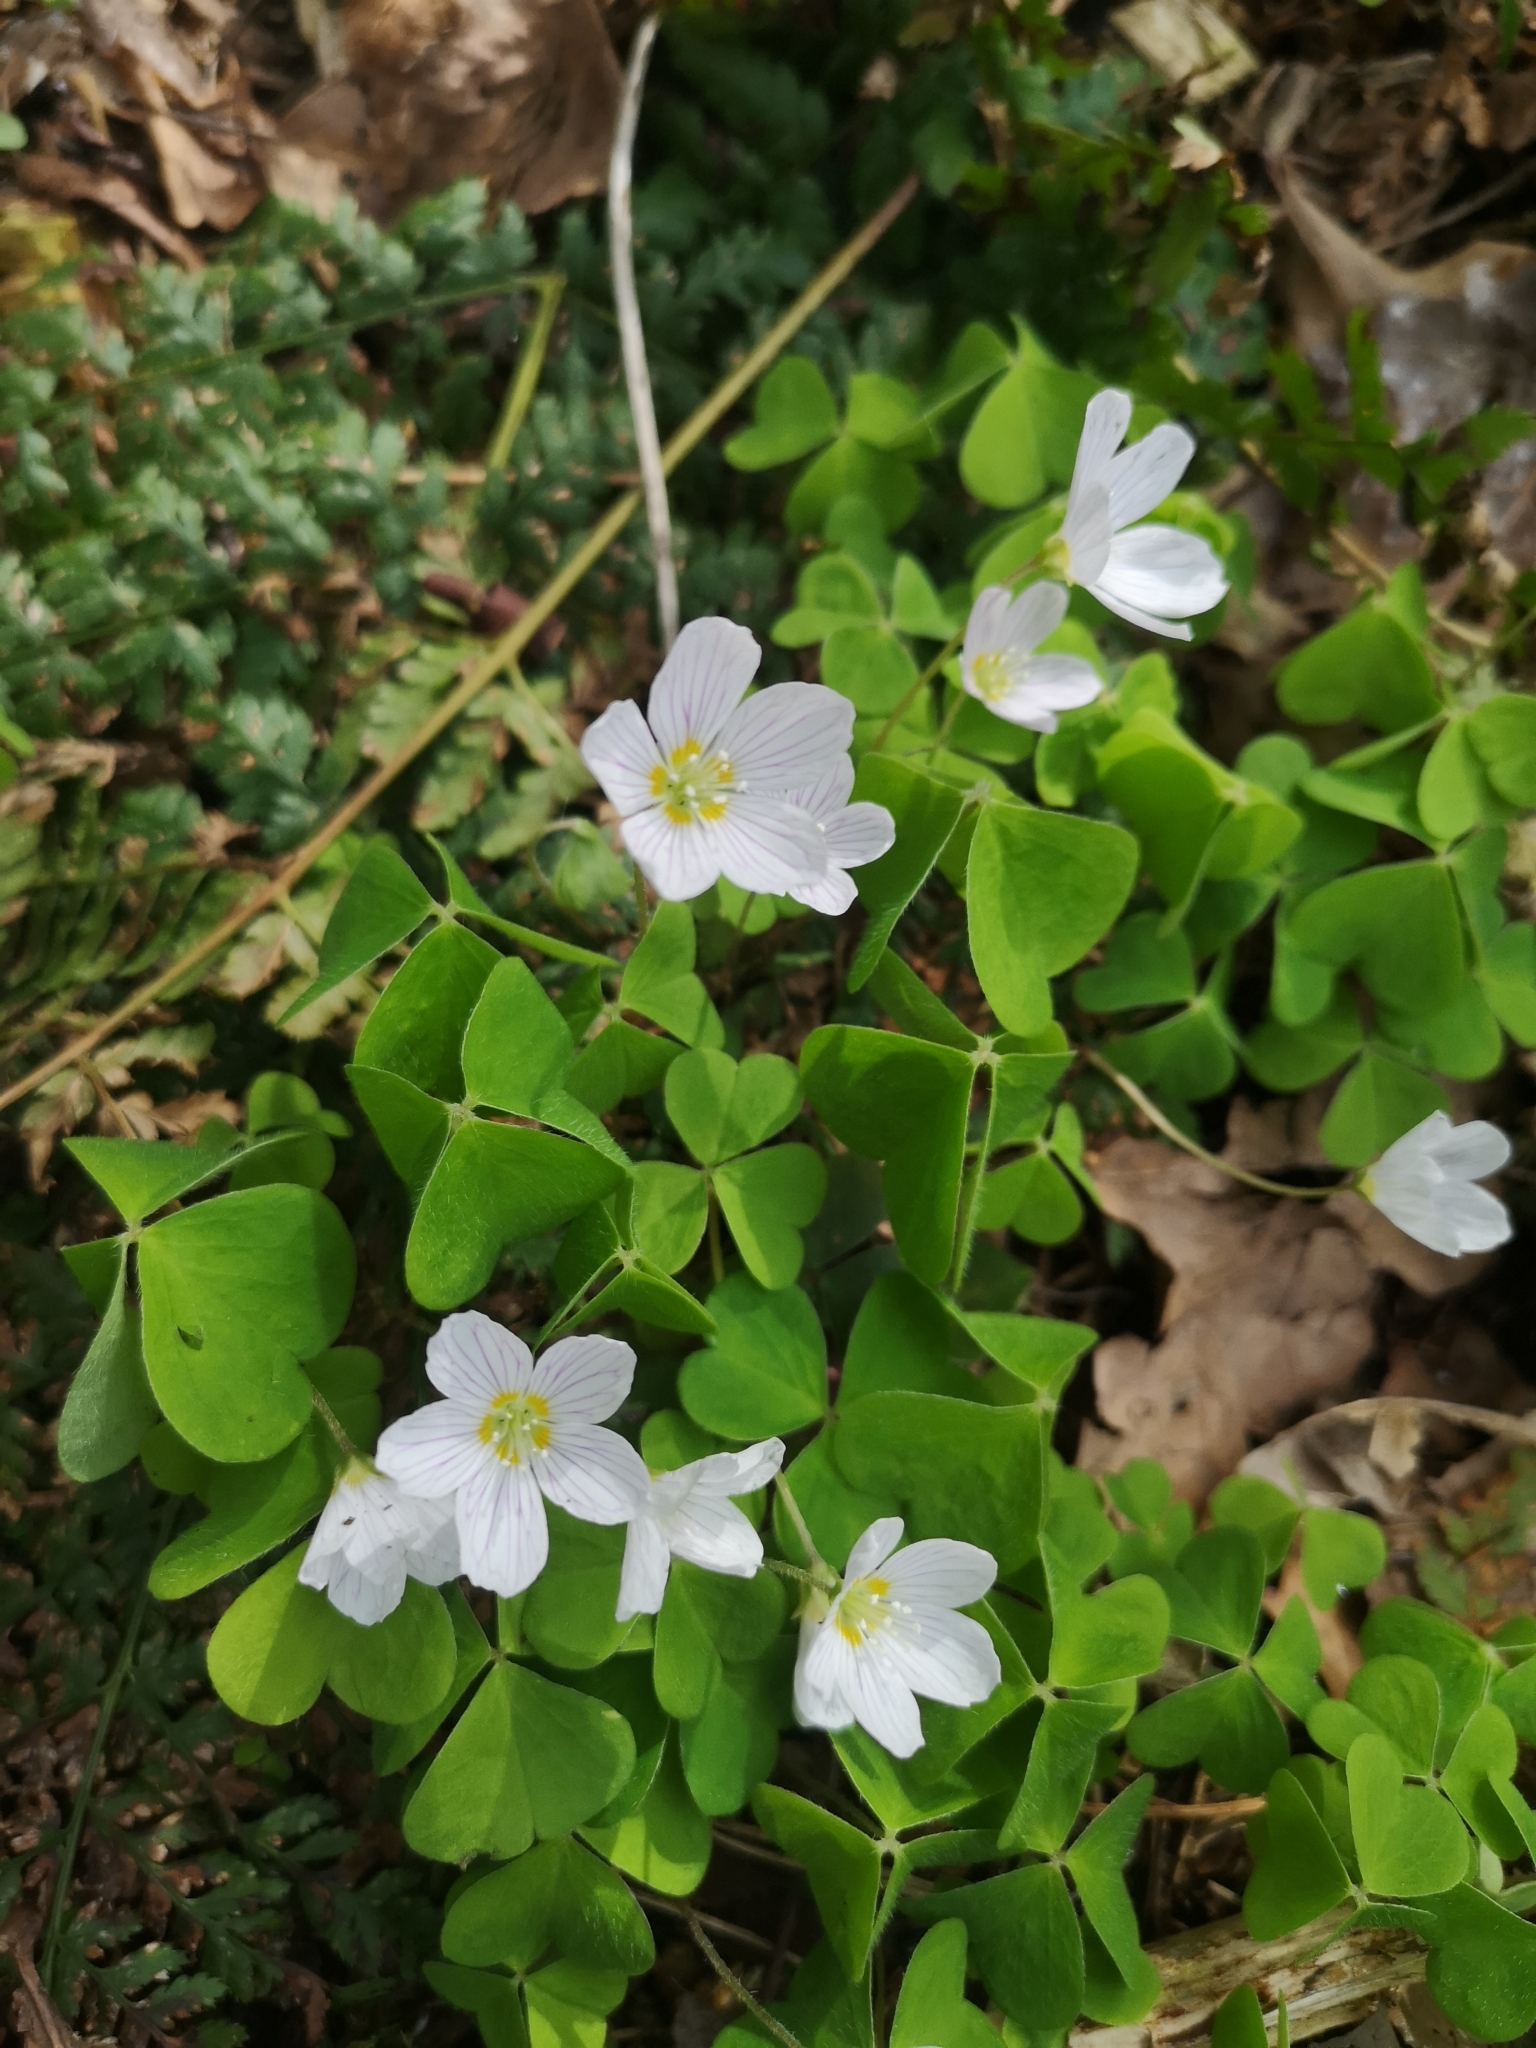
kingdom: Plantae
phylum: Tracheophyta
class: Magnoliopsida
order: Oxalidales
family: Oxalidaceae
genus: Oxalis
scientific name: Oxalis acetosella
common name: Wood-sorrel
